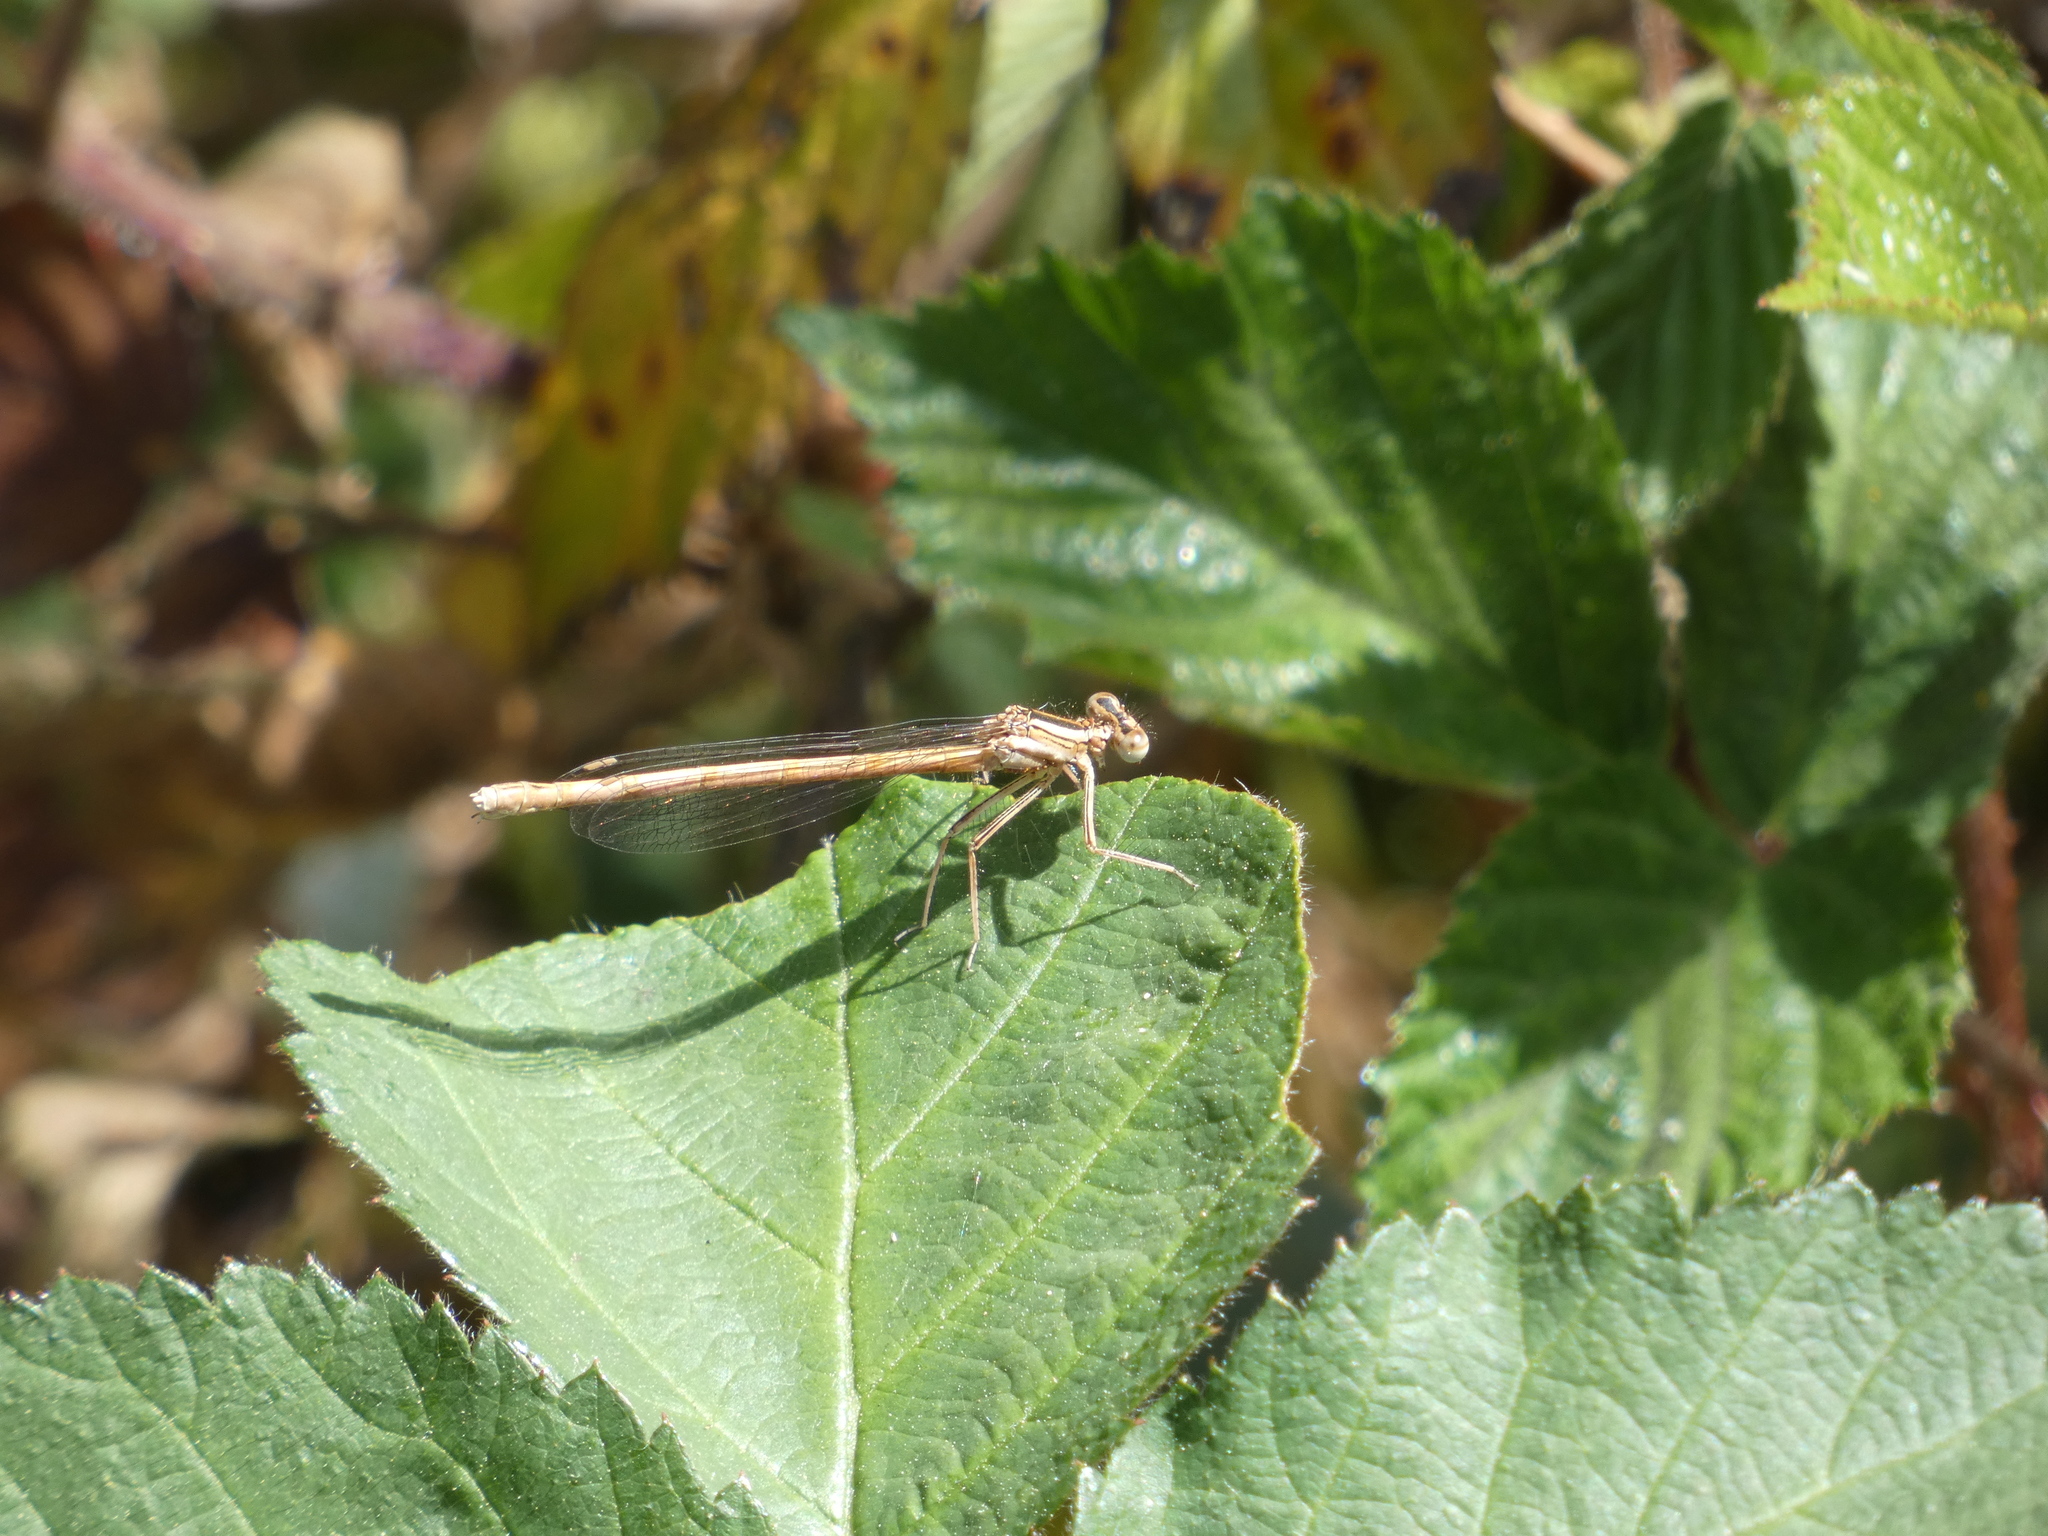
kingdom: Animalia
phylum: Arthropoda
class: Insecta
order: Odonata
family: Platycnemididae
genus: Platycnemis
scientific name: Platycnemis acutipennis
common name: Orange featherleg
